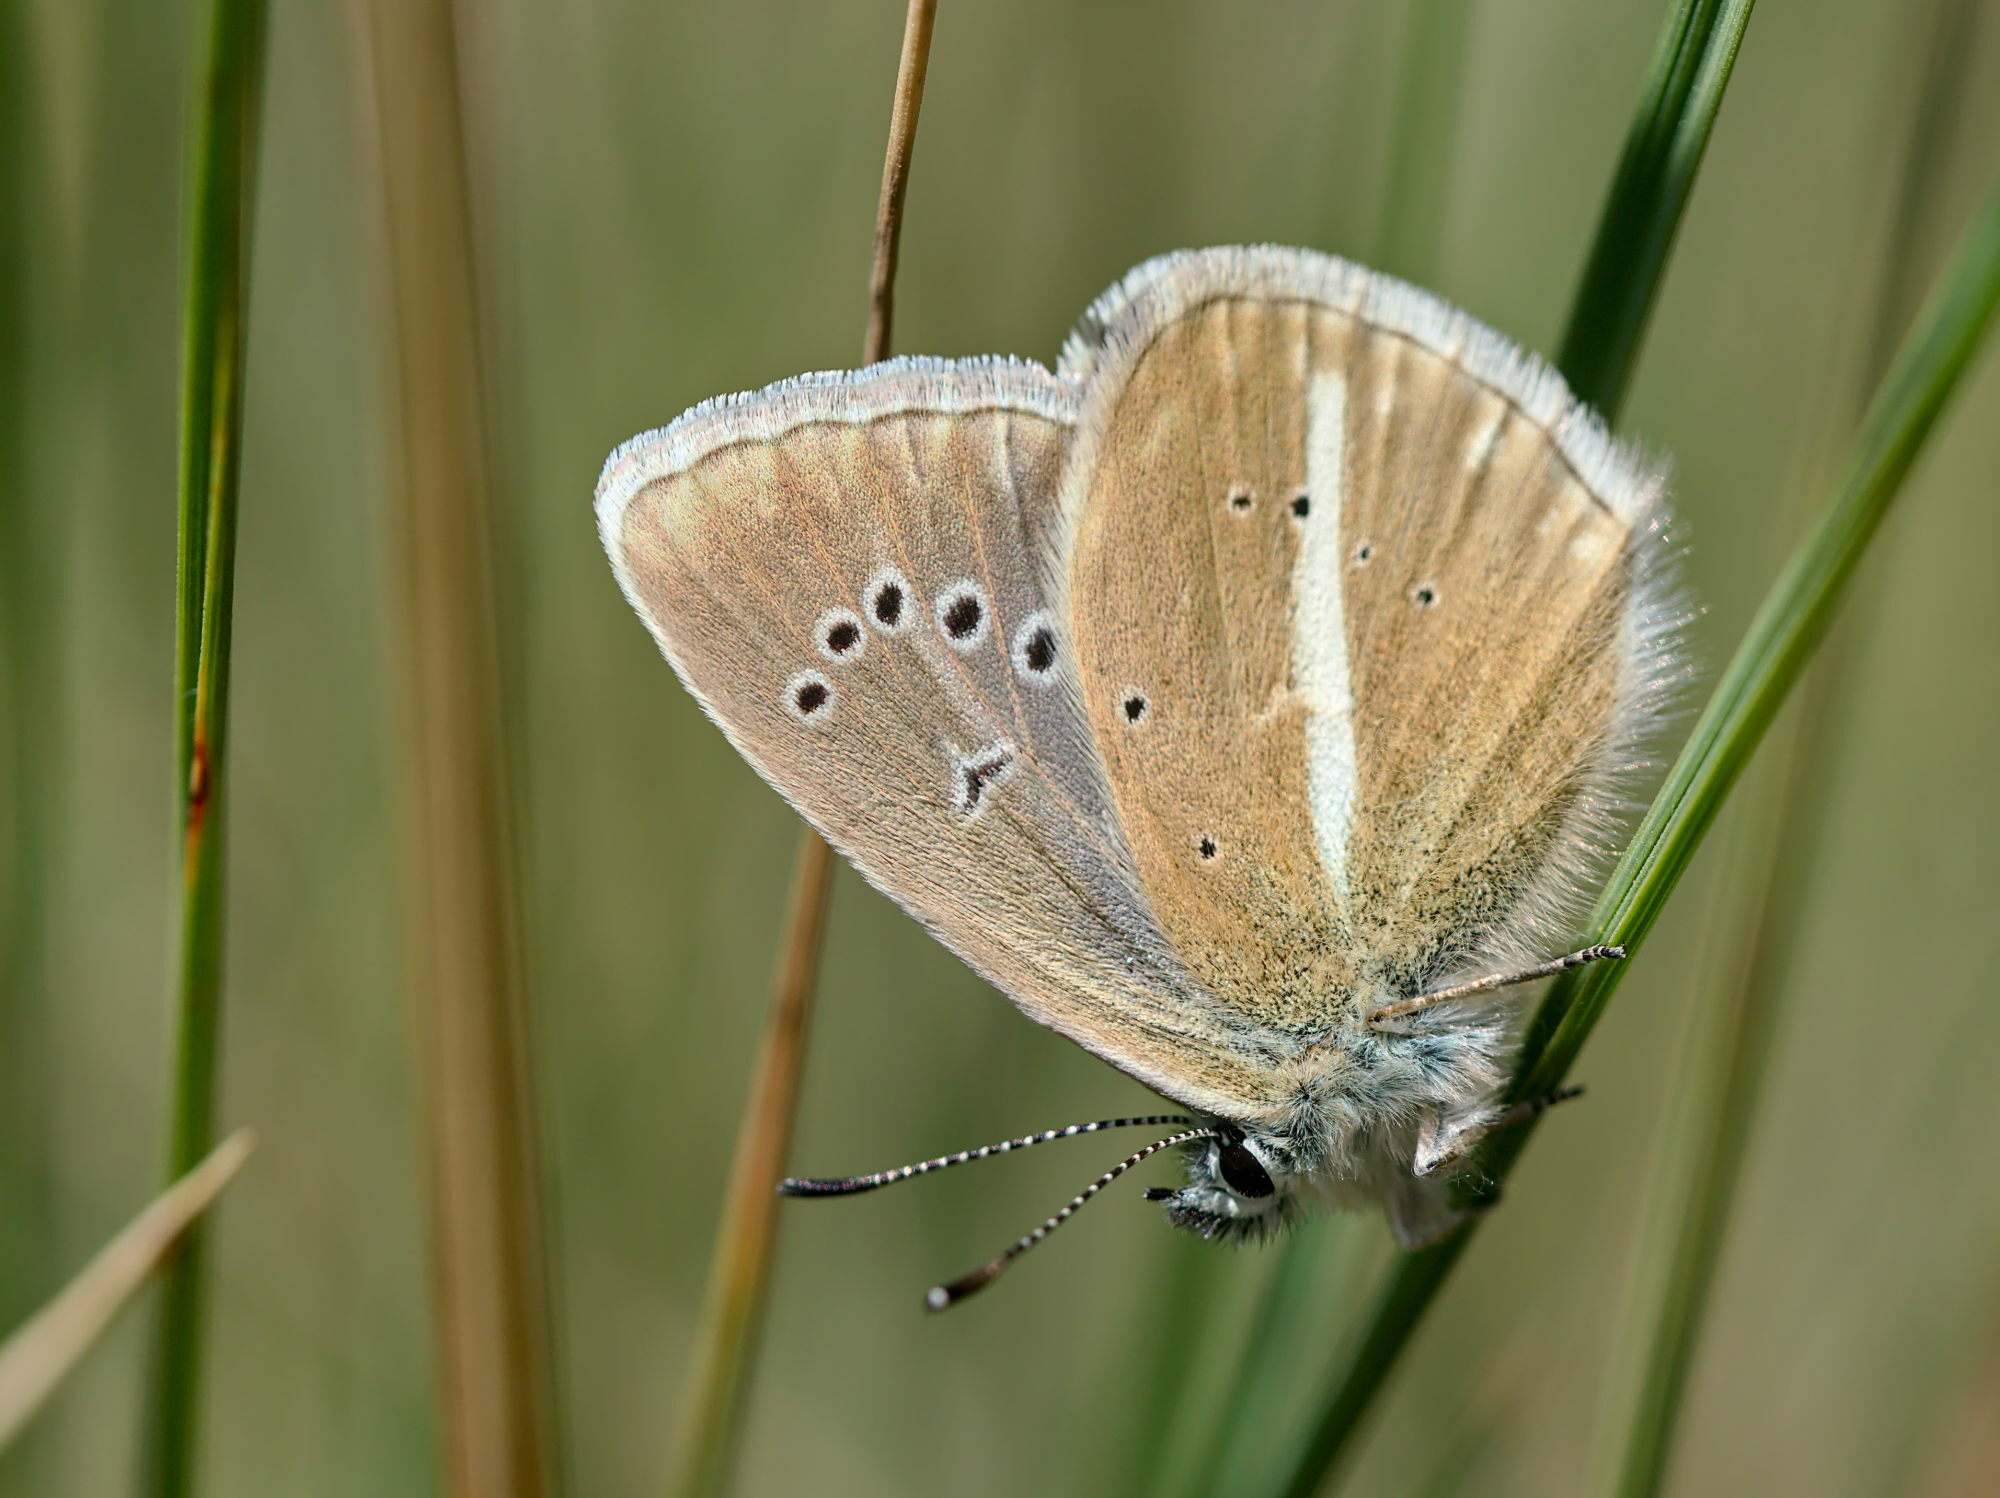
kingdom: Animalia
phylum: Arthropoda
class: Insecta
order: Lepidoptera
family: Lycaenidae
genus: Agrodiaetus
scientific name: Agrodiaetus damon
